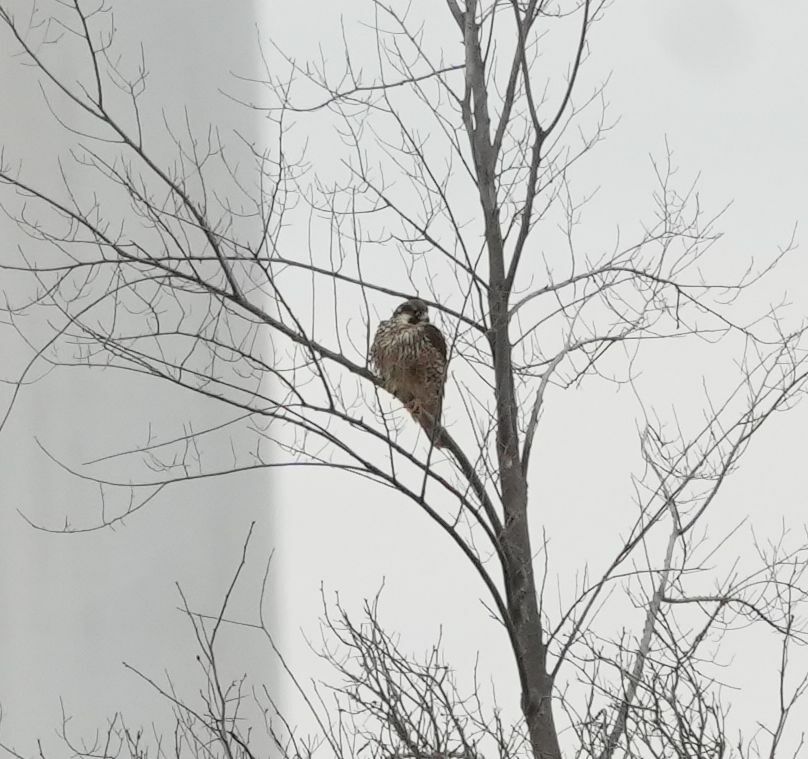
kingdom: Animalia
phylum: Chordata
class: Aves
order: Falconiformes
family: Falconidae
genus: Falco
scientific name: Falco peregrinus
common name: Peregrine falcon
